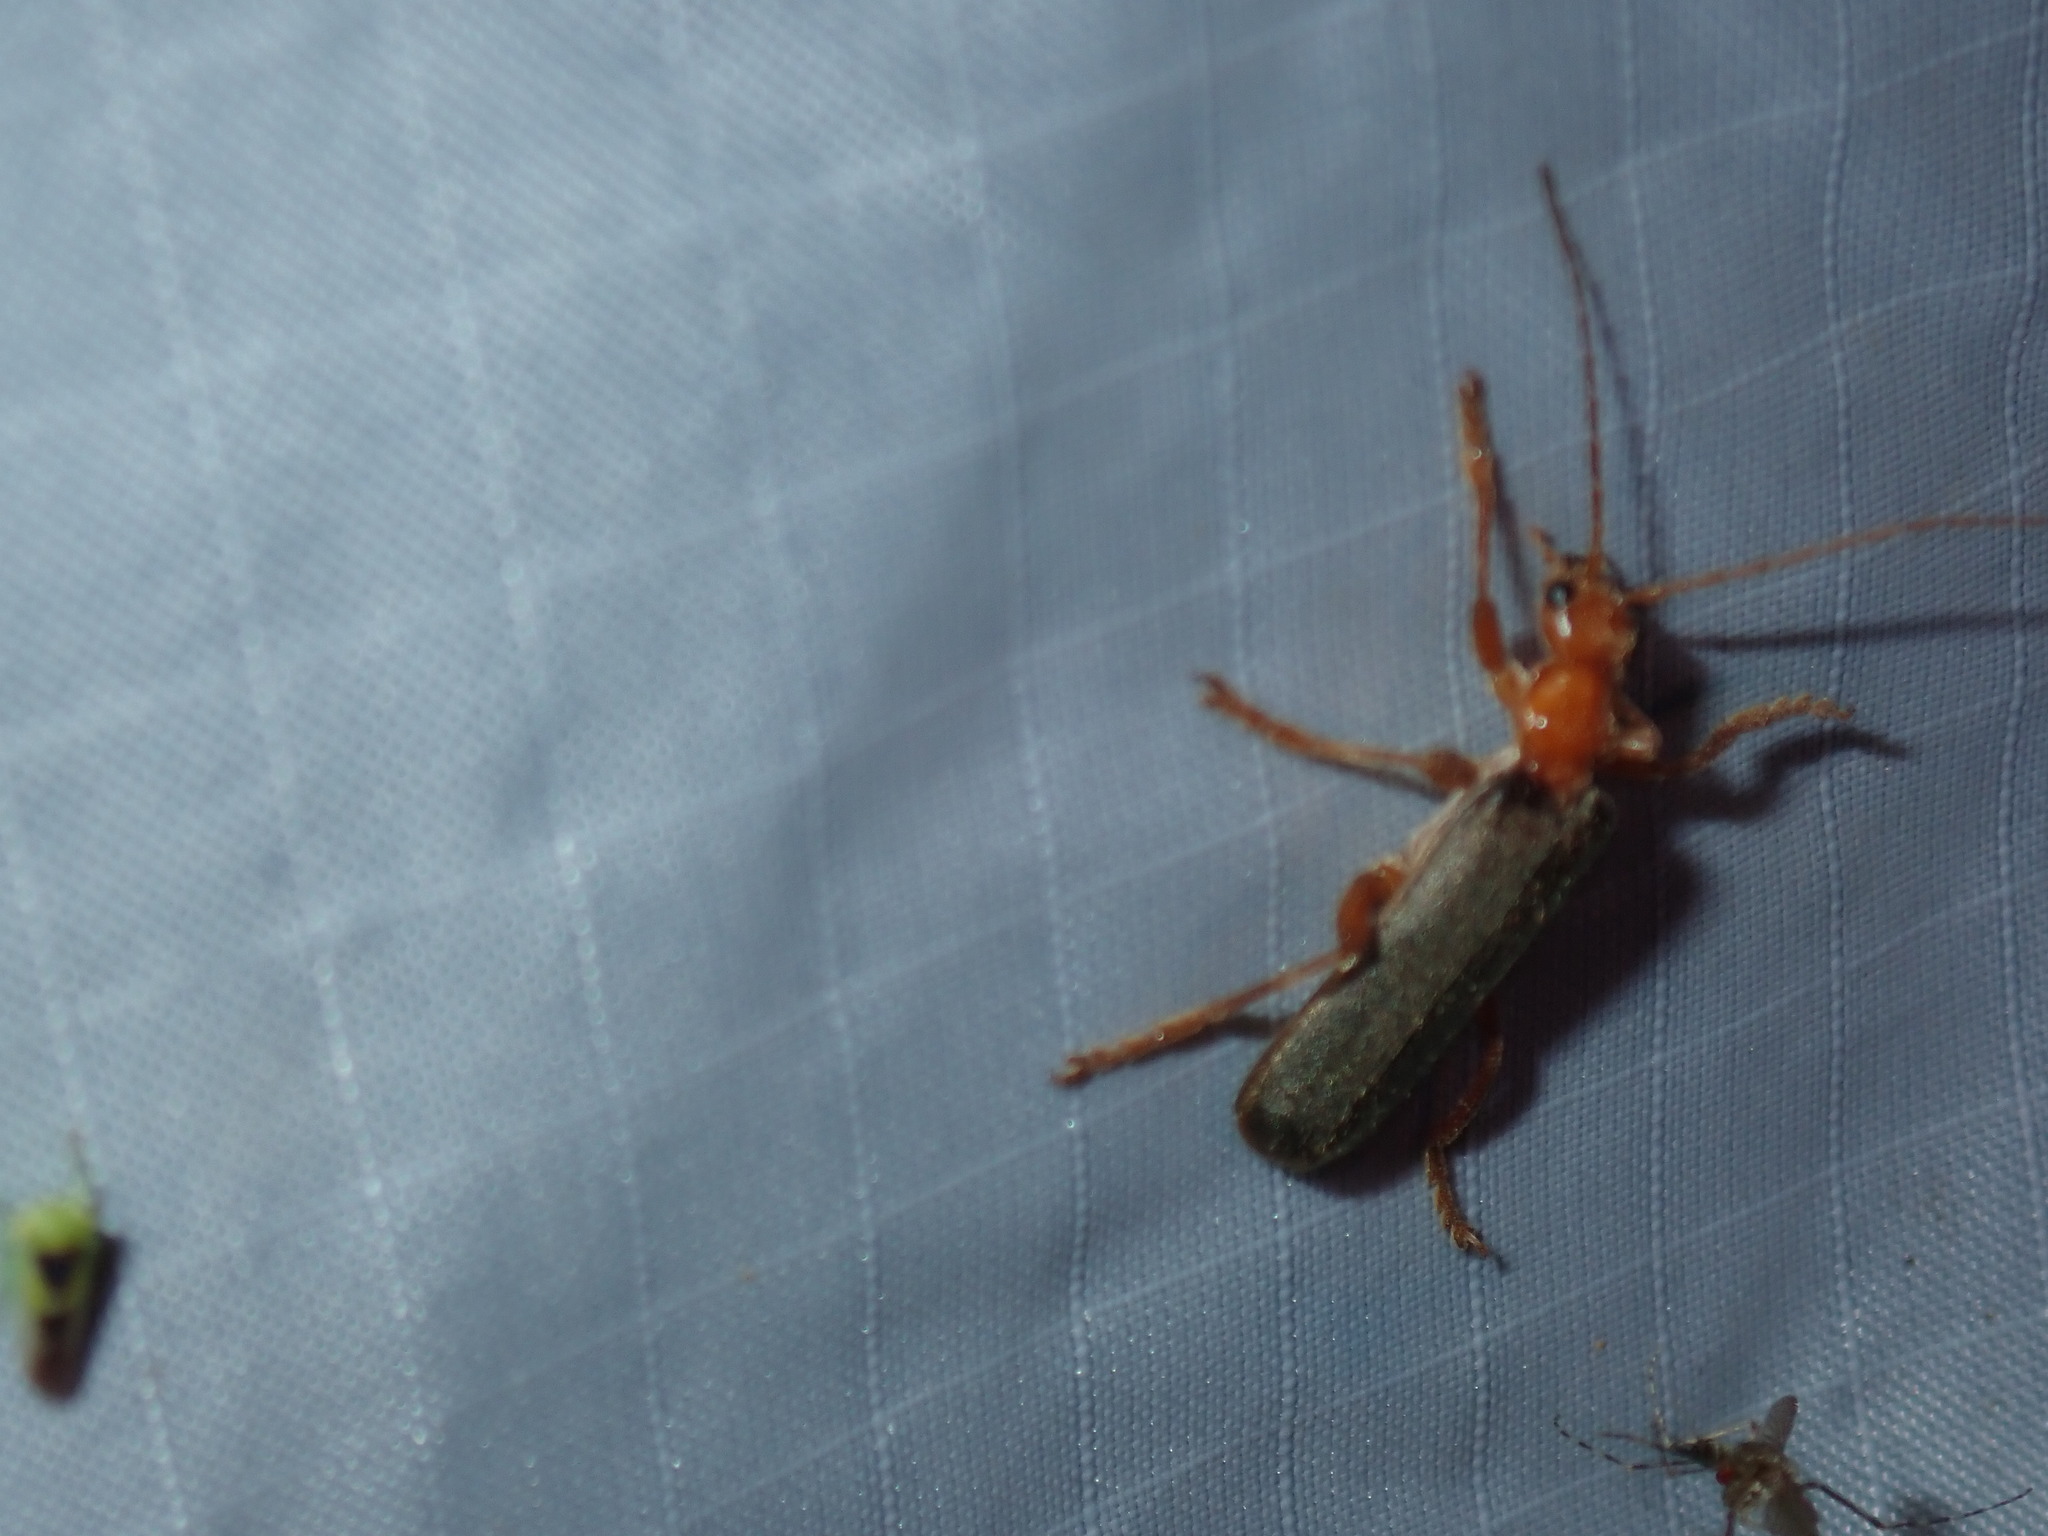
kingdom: Animalia
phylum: Arthropoda
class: Insecta
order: Coleoptera
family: Cantharidae
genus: Pacificanthia
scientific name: Pacificanthia rotundicollis
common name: Brown leatherwing beetle
